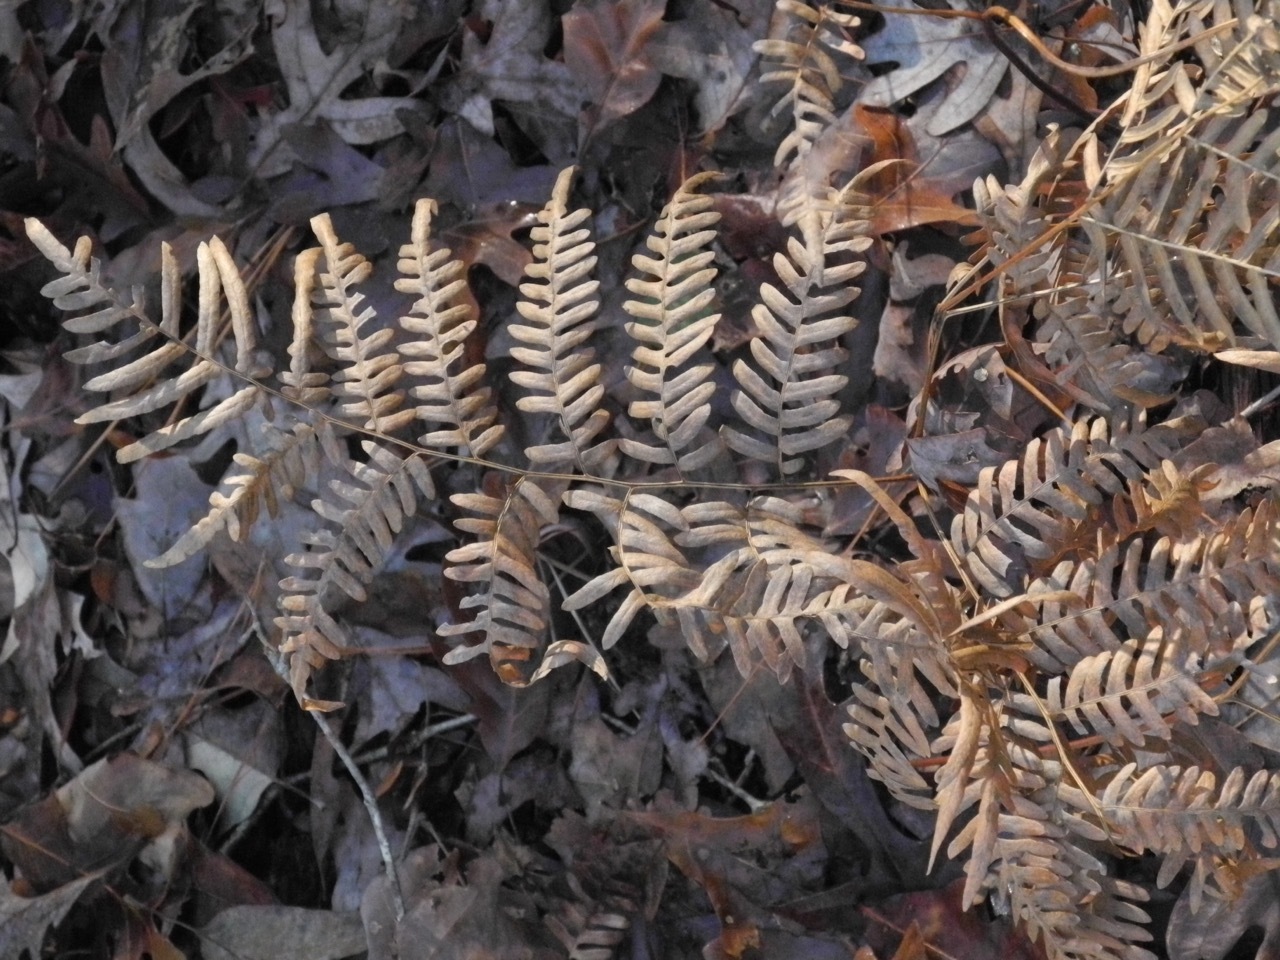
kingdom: Plantae
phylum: Tracheophyta
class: Polypodiopsida
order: Polypodiales
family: Dennstaedtiaceae
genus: Pteridium
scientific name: Pteridium
